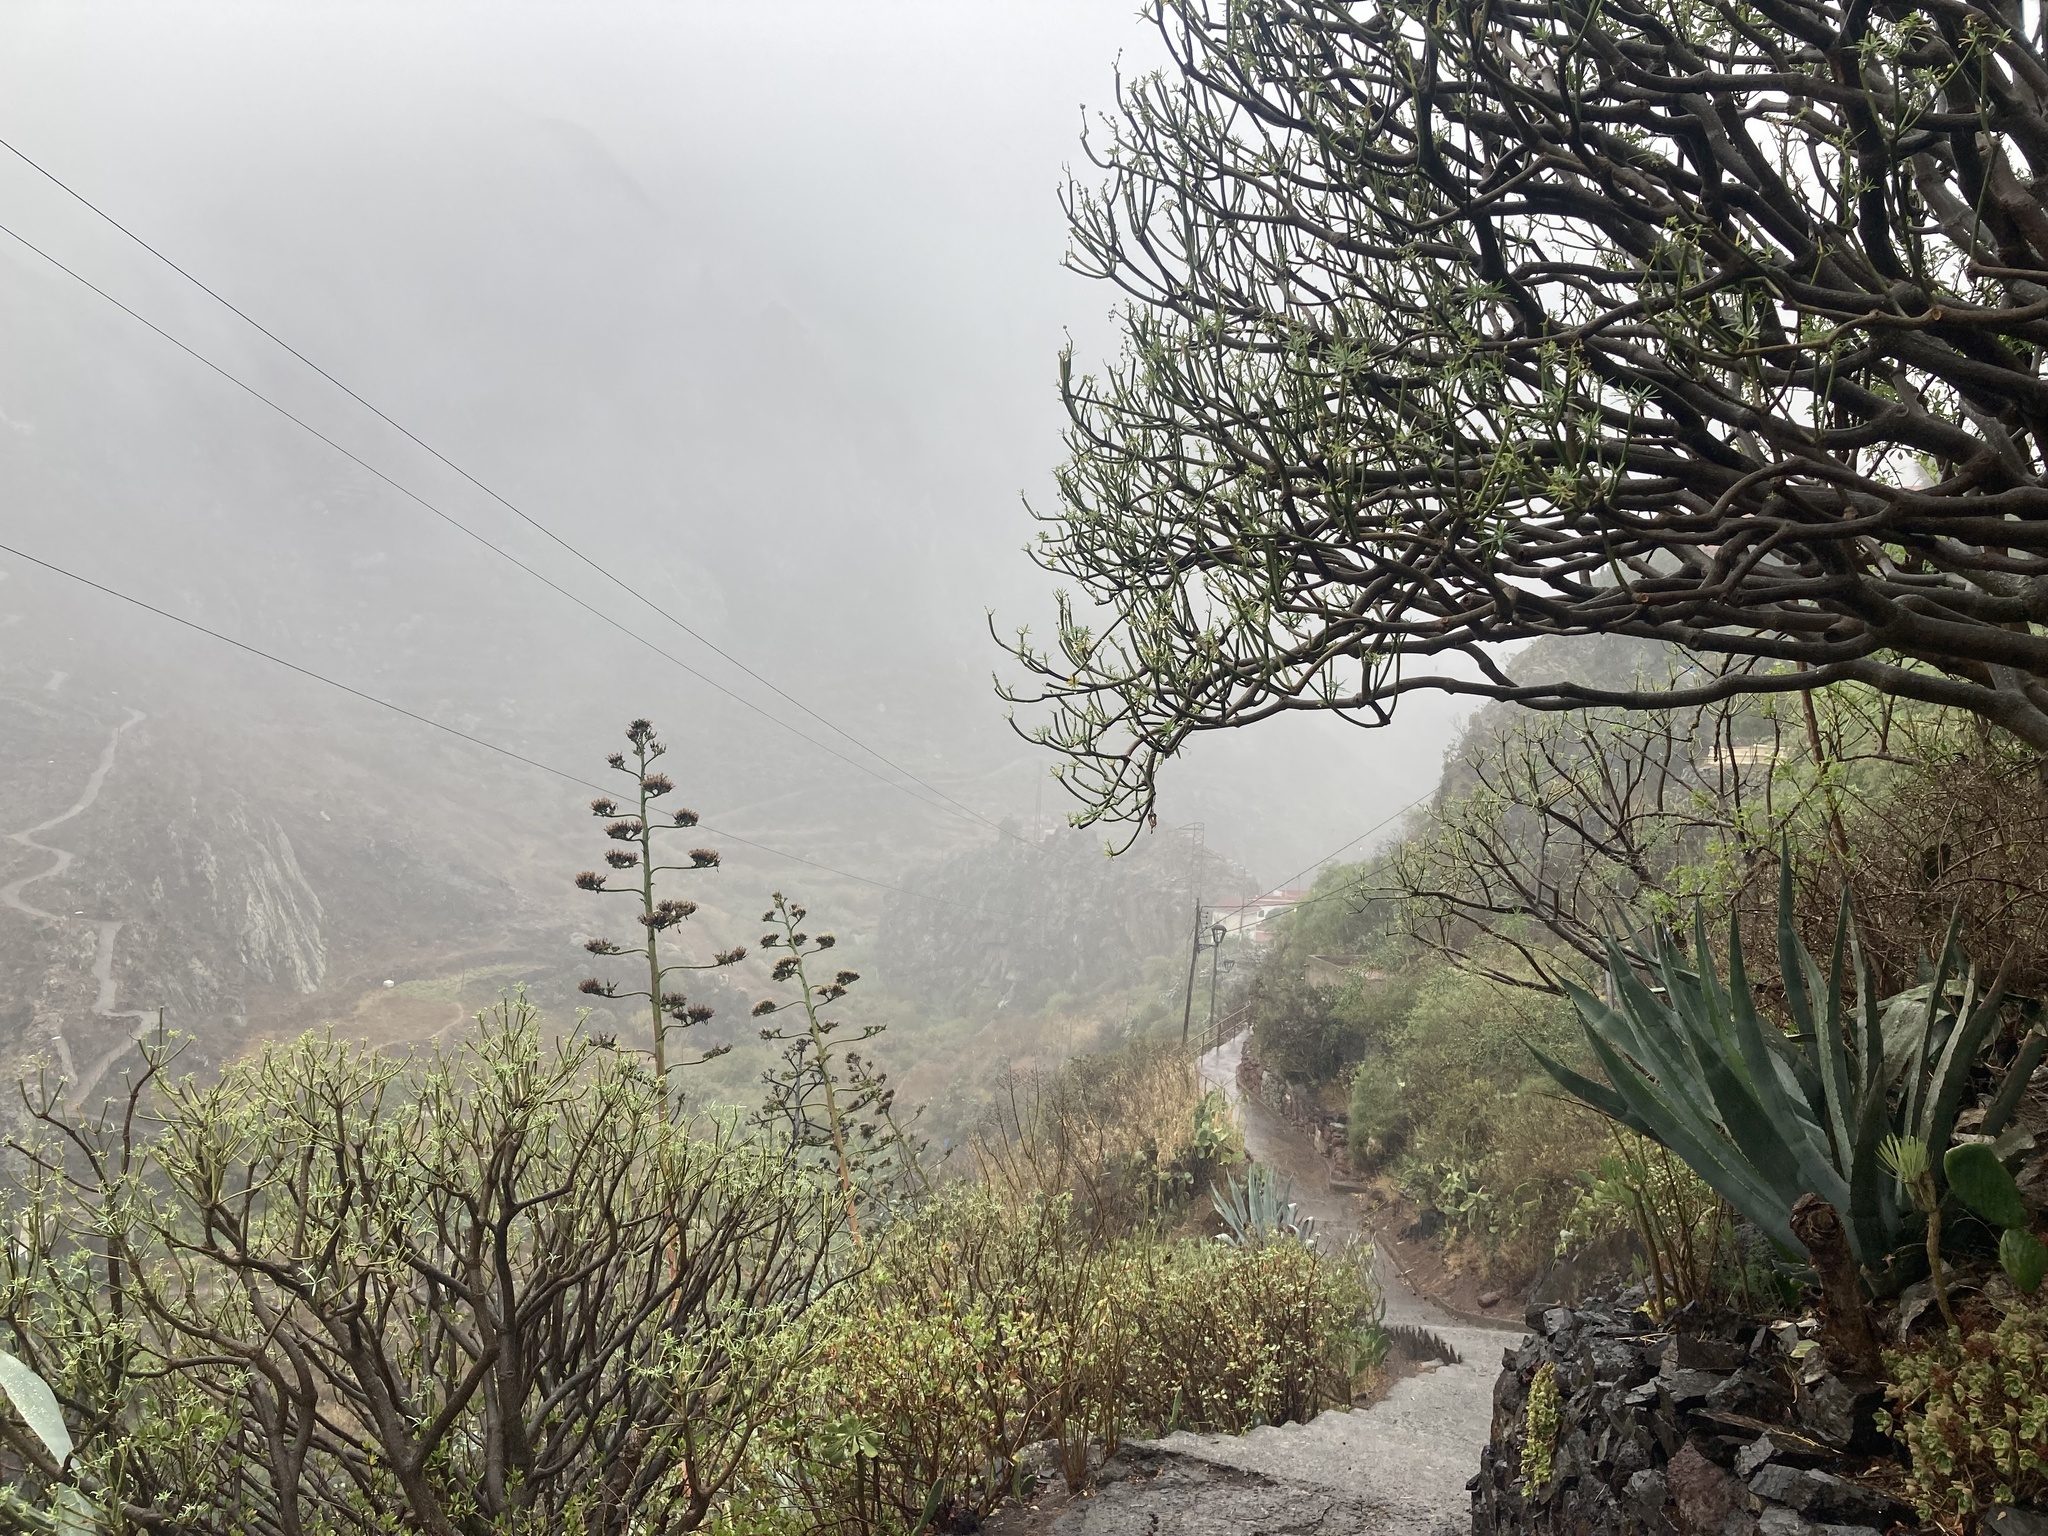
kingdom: Plantae
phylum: Tracheophyta
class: Magnoliopsida
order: Malpighiales
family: Euphorbiaceae
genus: Euphorbia
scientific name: Euphorbia lamarckii
